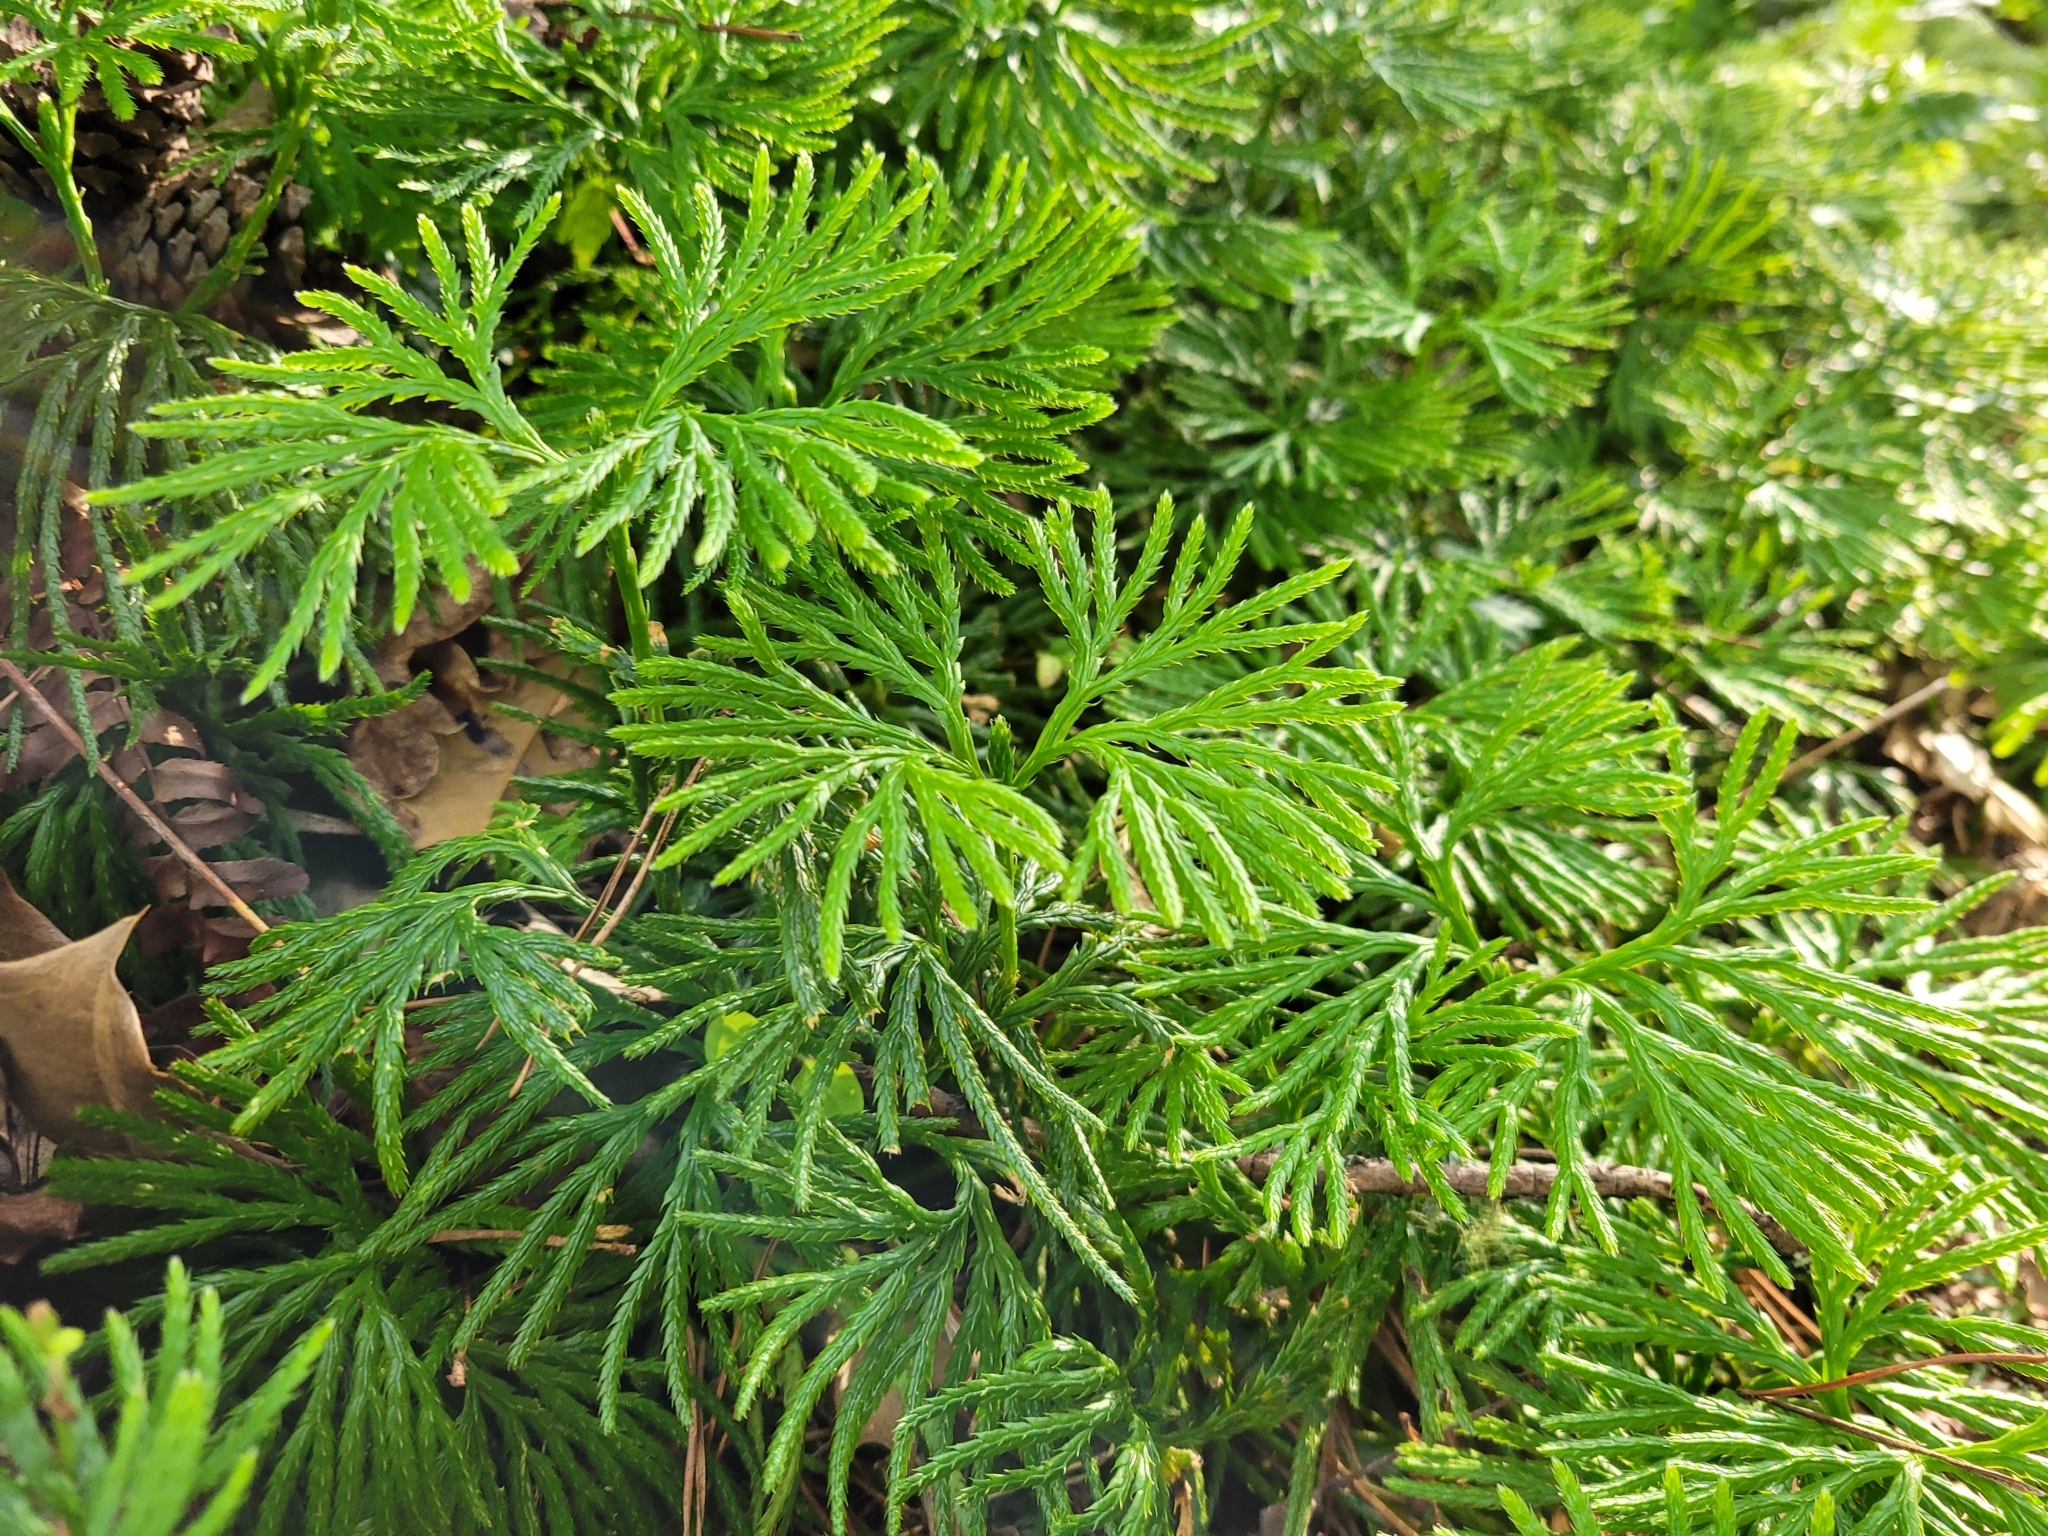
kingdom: Plantae
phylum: Tracheophyta
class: Lycopodiopsida
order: Lycopodiales
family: Lycopodiaceae
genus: Diphasiastrum
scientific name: Diphasiastrum digitatum
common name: Southern running-pine
